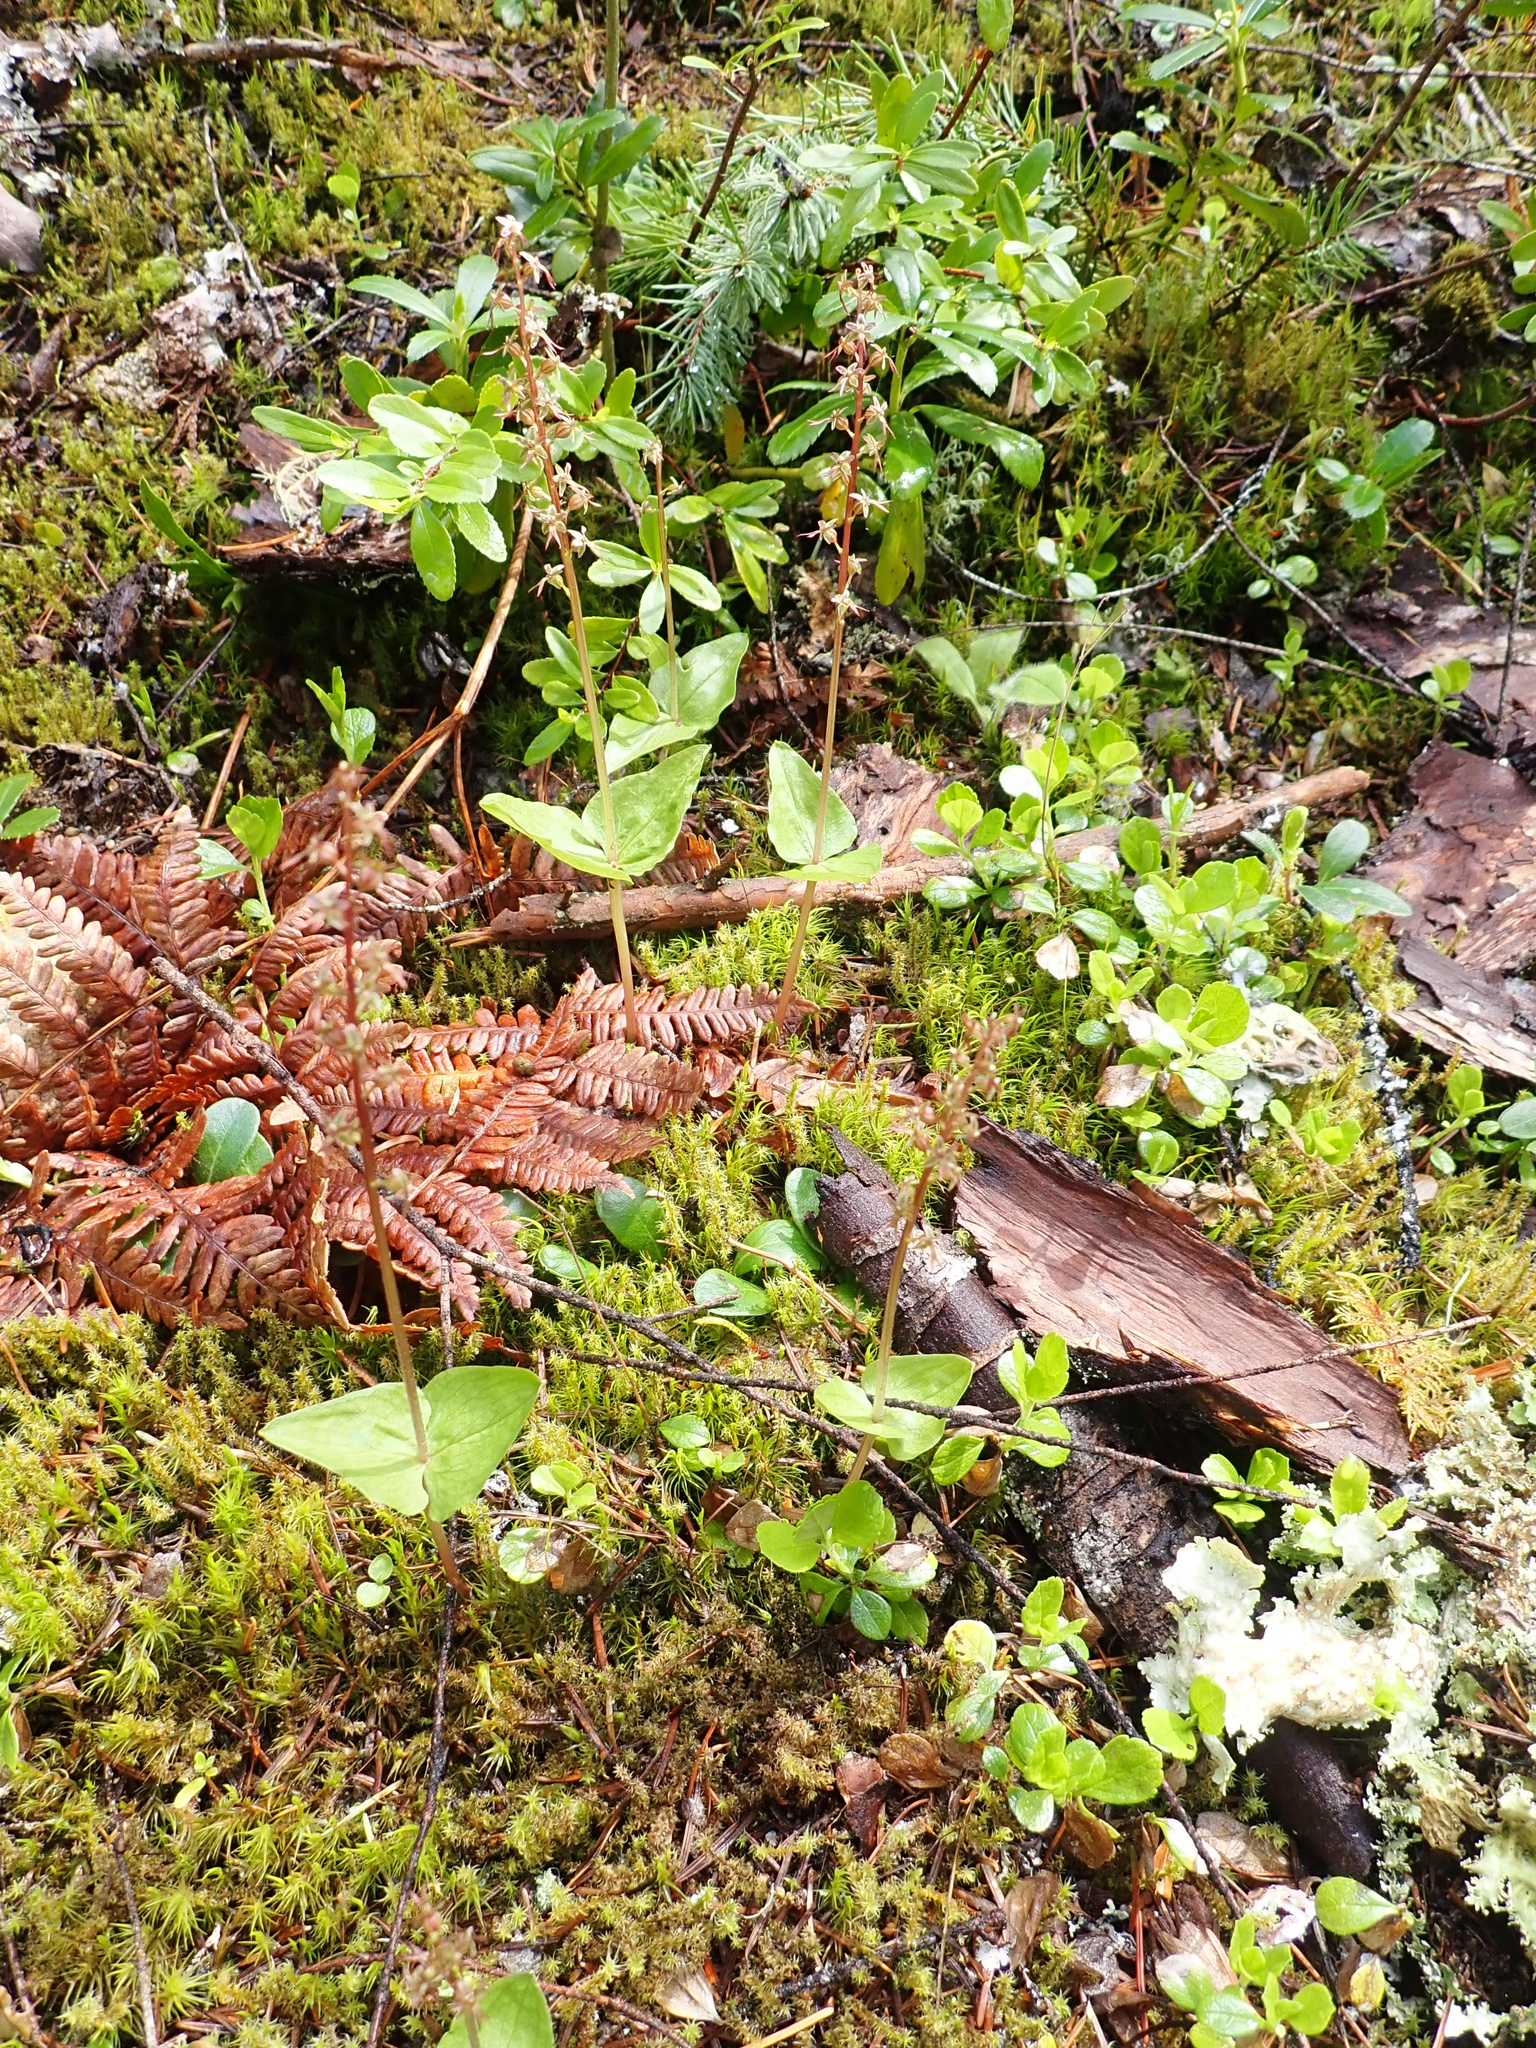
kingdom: Plantae
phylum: Tracheophyta
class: Liliopsida
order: Asparagales
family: Orchidaceae
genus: Neottia
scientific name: Neottia cordata
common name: Lesser twayblade
